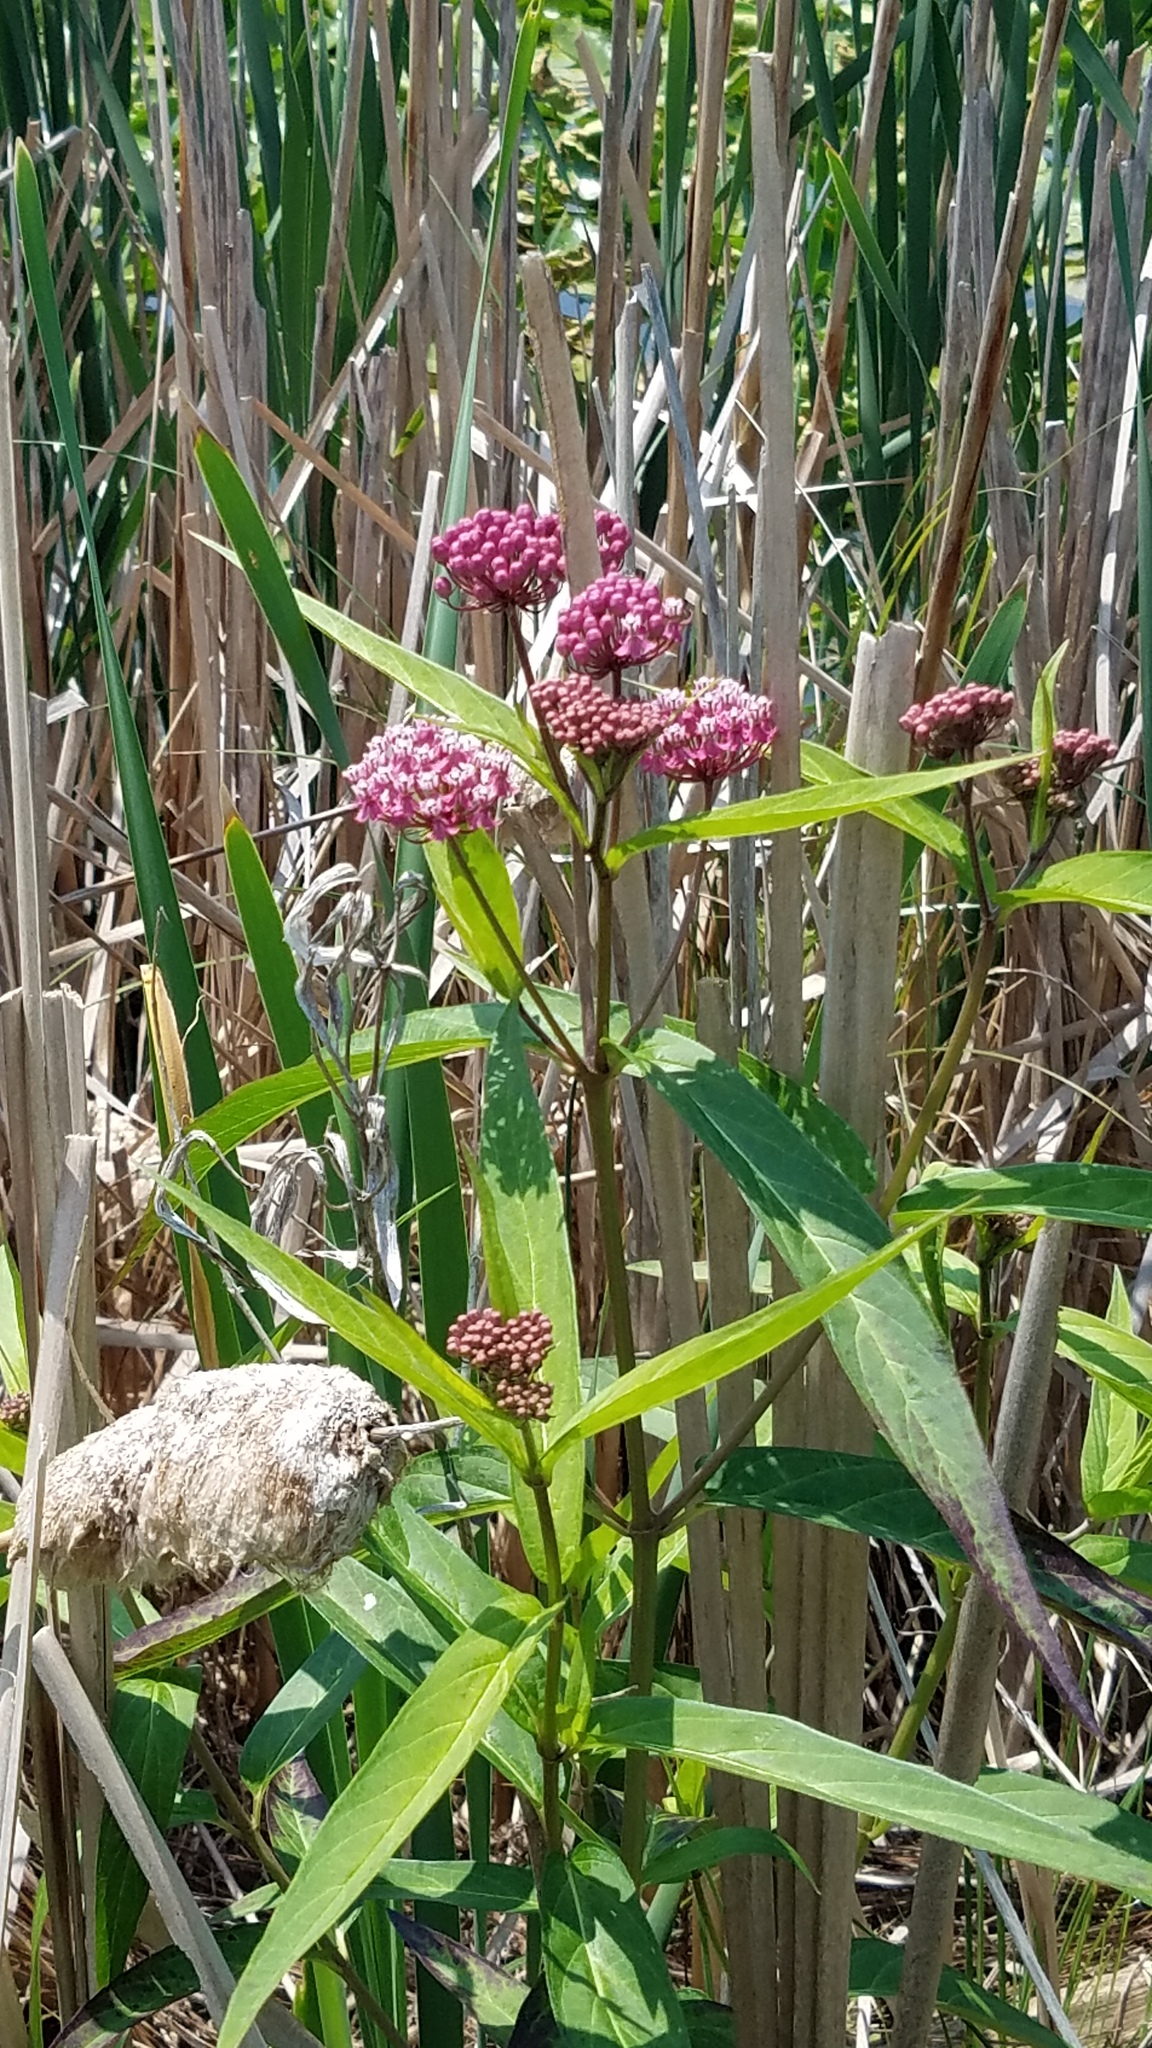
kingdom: Plantae
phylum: Tracheophyta
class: Magnoliopsida
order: Gentianales
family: Apocynaceae
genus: Asclepias
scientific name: Asclepias incarnata
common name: Swamp milkweed
